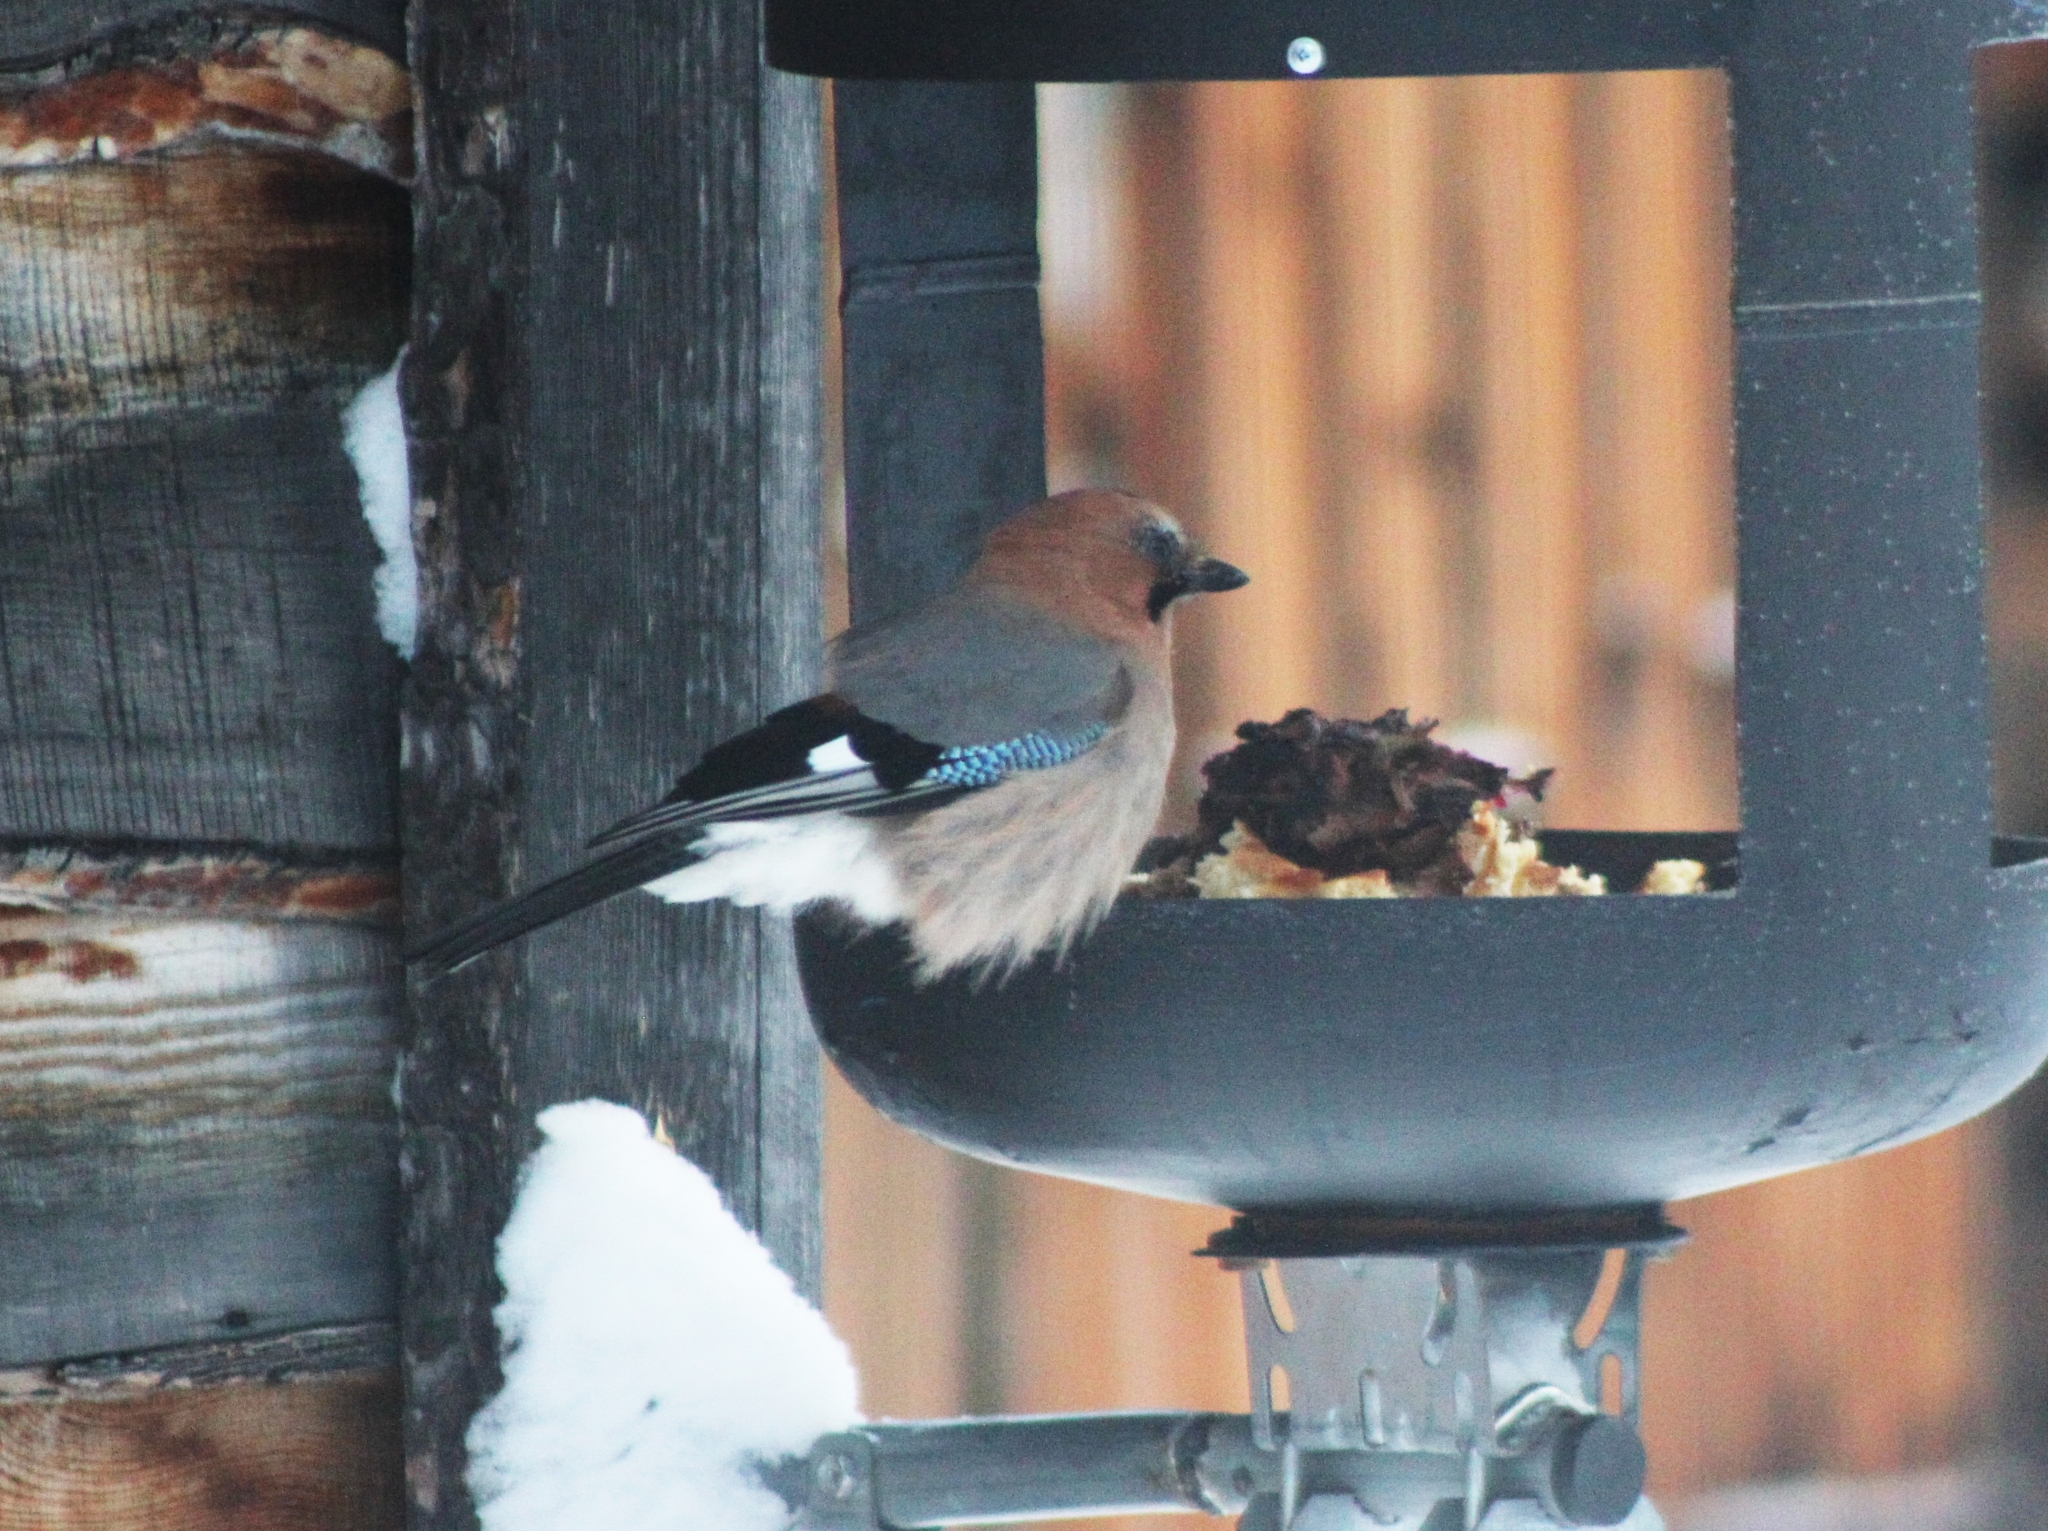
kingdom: Animalia
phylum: Chordata
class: Aves
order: Passeriformes
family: Corvidae
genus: Garrulus
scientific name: Garrulus glandarius
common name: Eurasian jay
